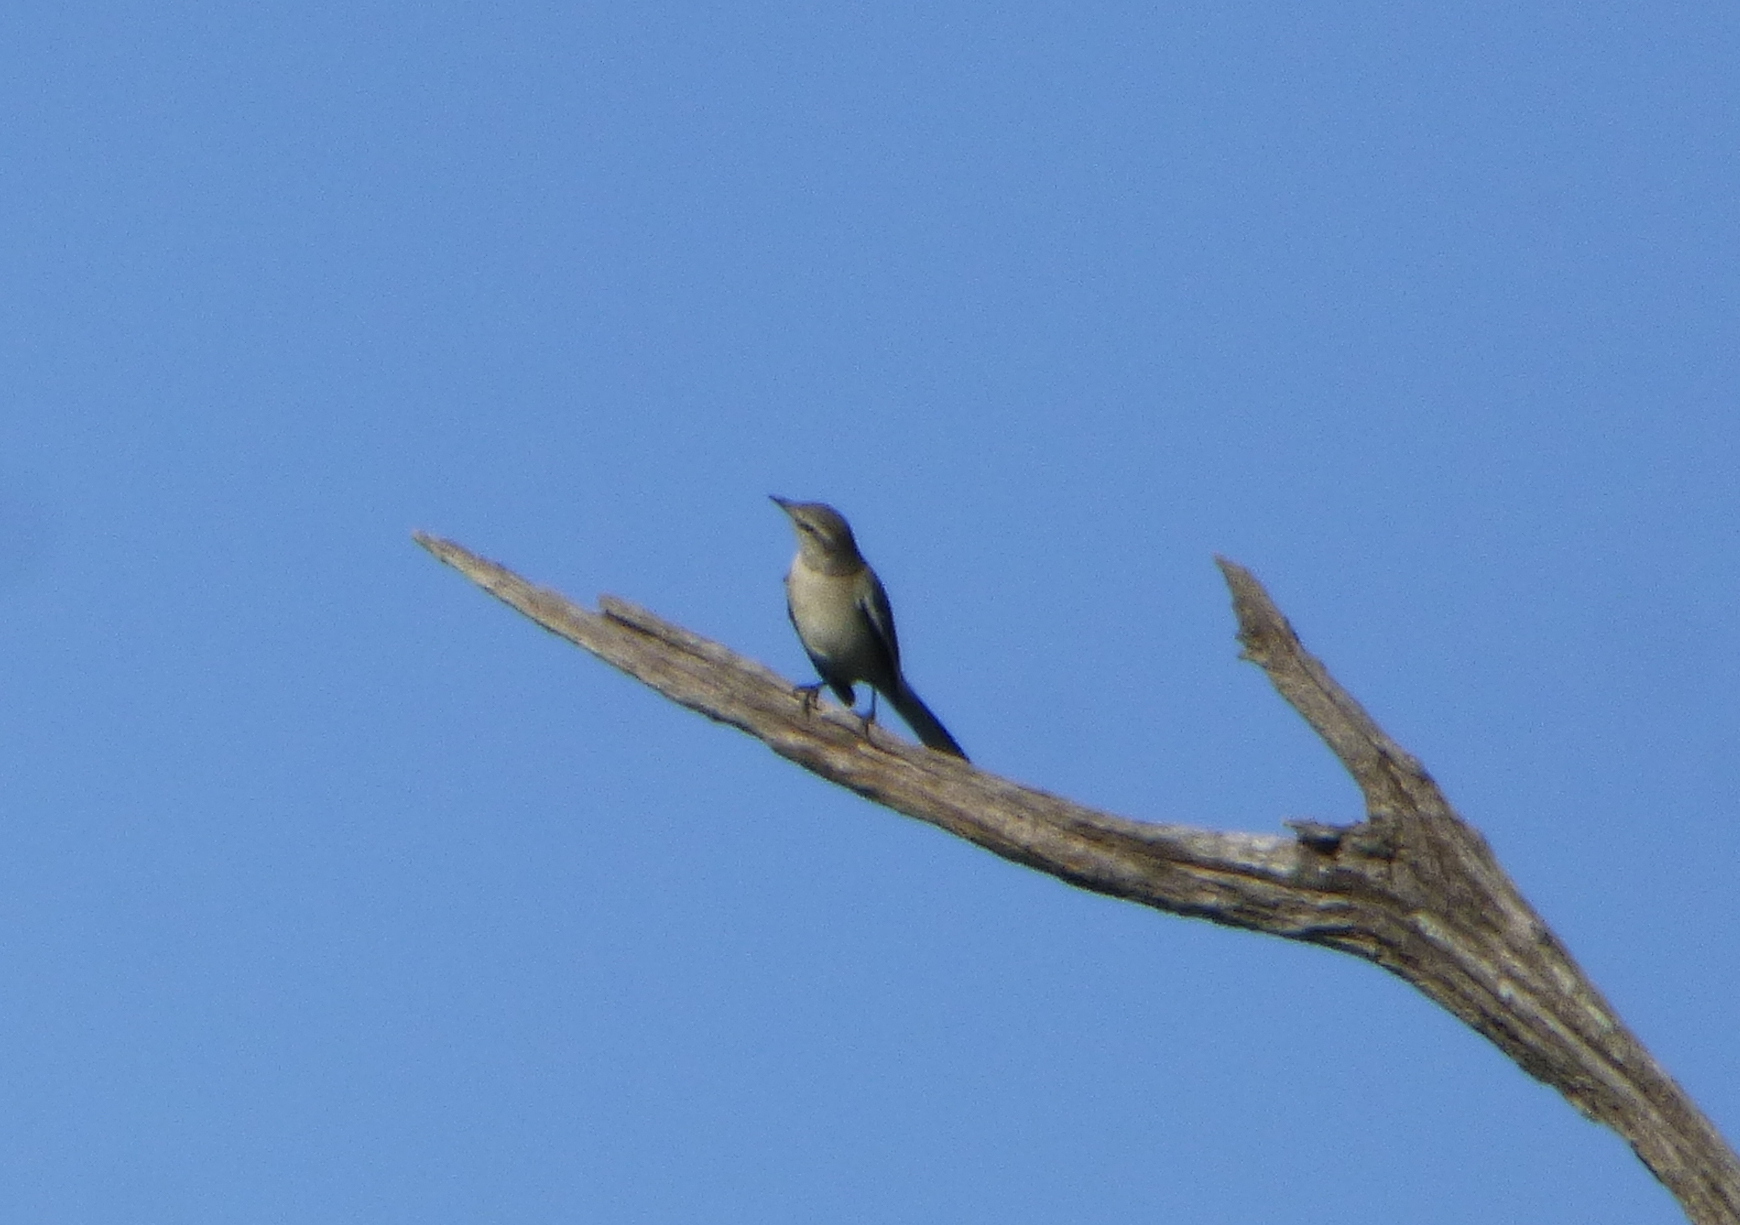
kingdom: Animalia
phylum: Chordata
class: Aves
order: Passeriformes
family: Mimidae
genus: Mimus
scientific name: Mimus triurus
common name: White-banded mockingbird
